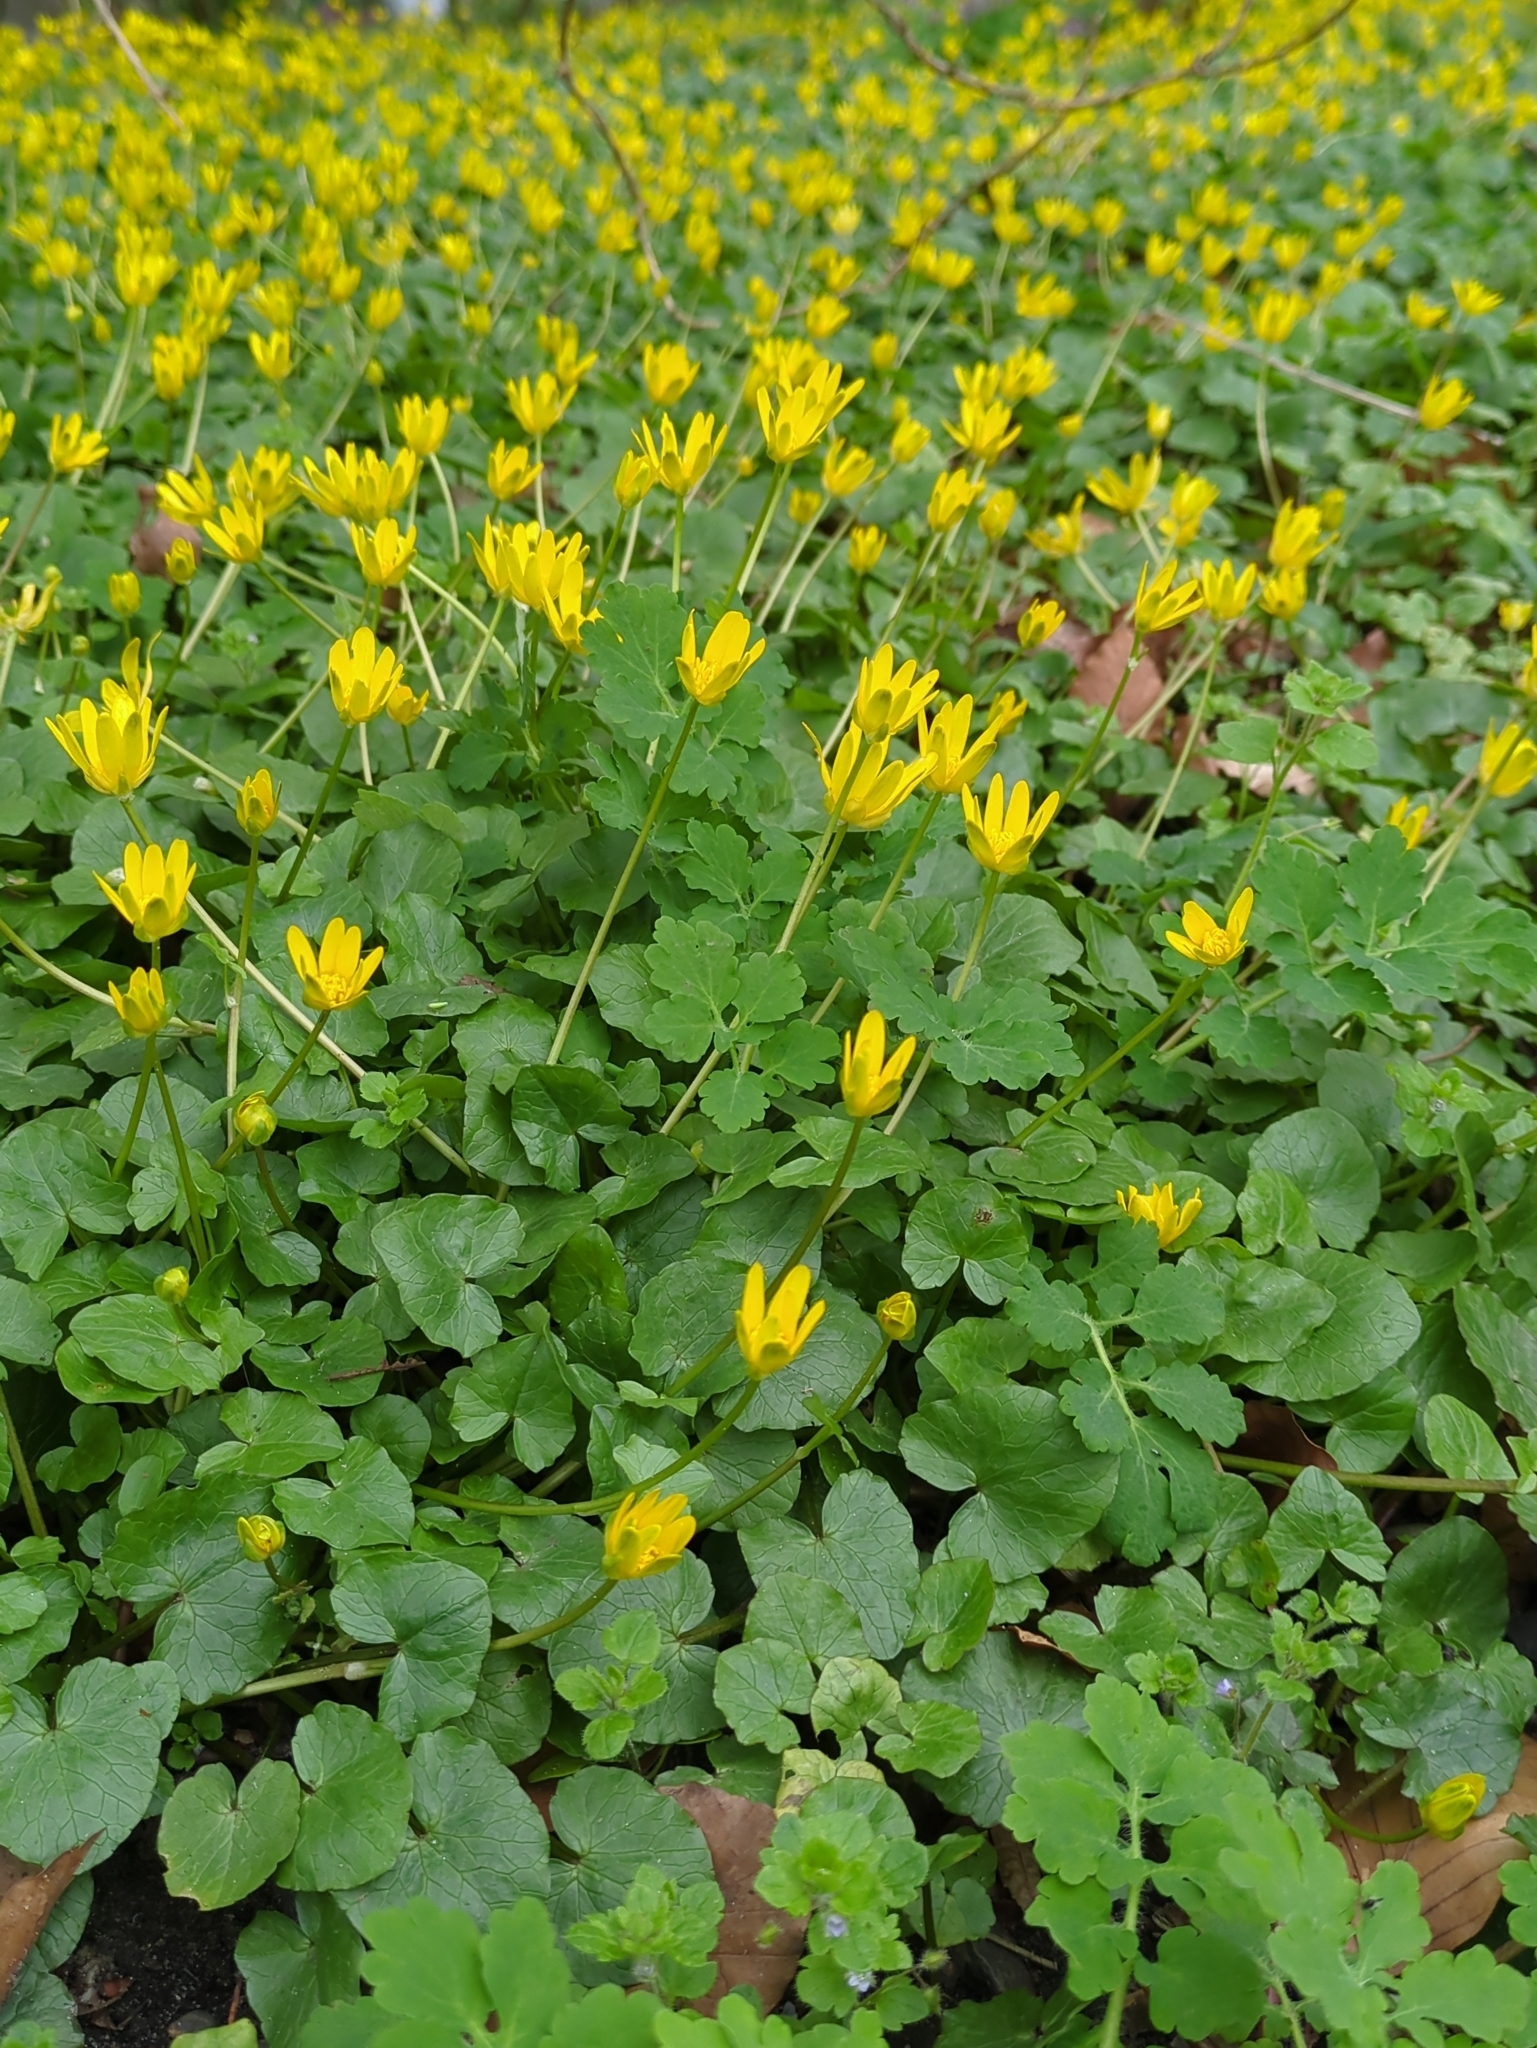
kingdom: Plantae
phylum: Tracheophyta
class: Magnoliopsida
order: Ranunculales
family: Ranunculaceae
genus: Ficaria
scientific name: Ficaria verna
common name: Lesser celandine
